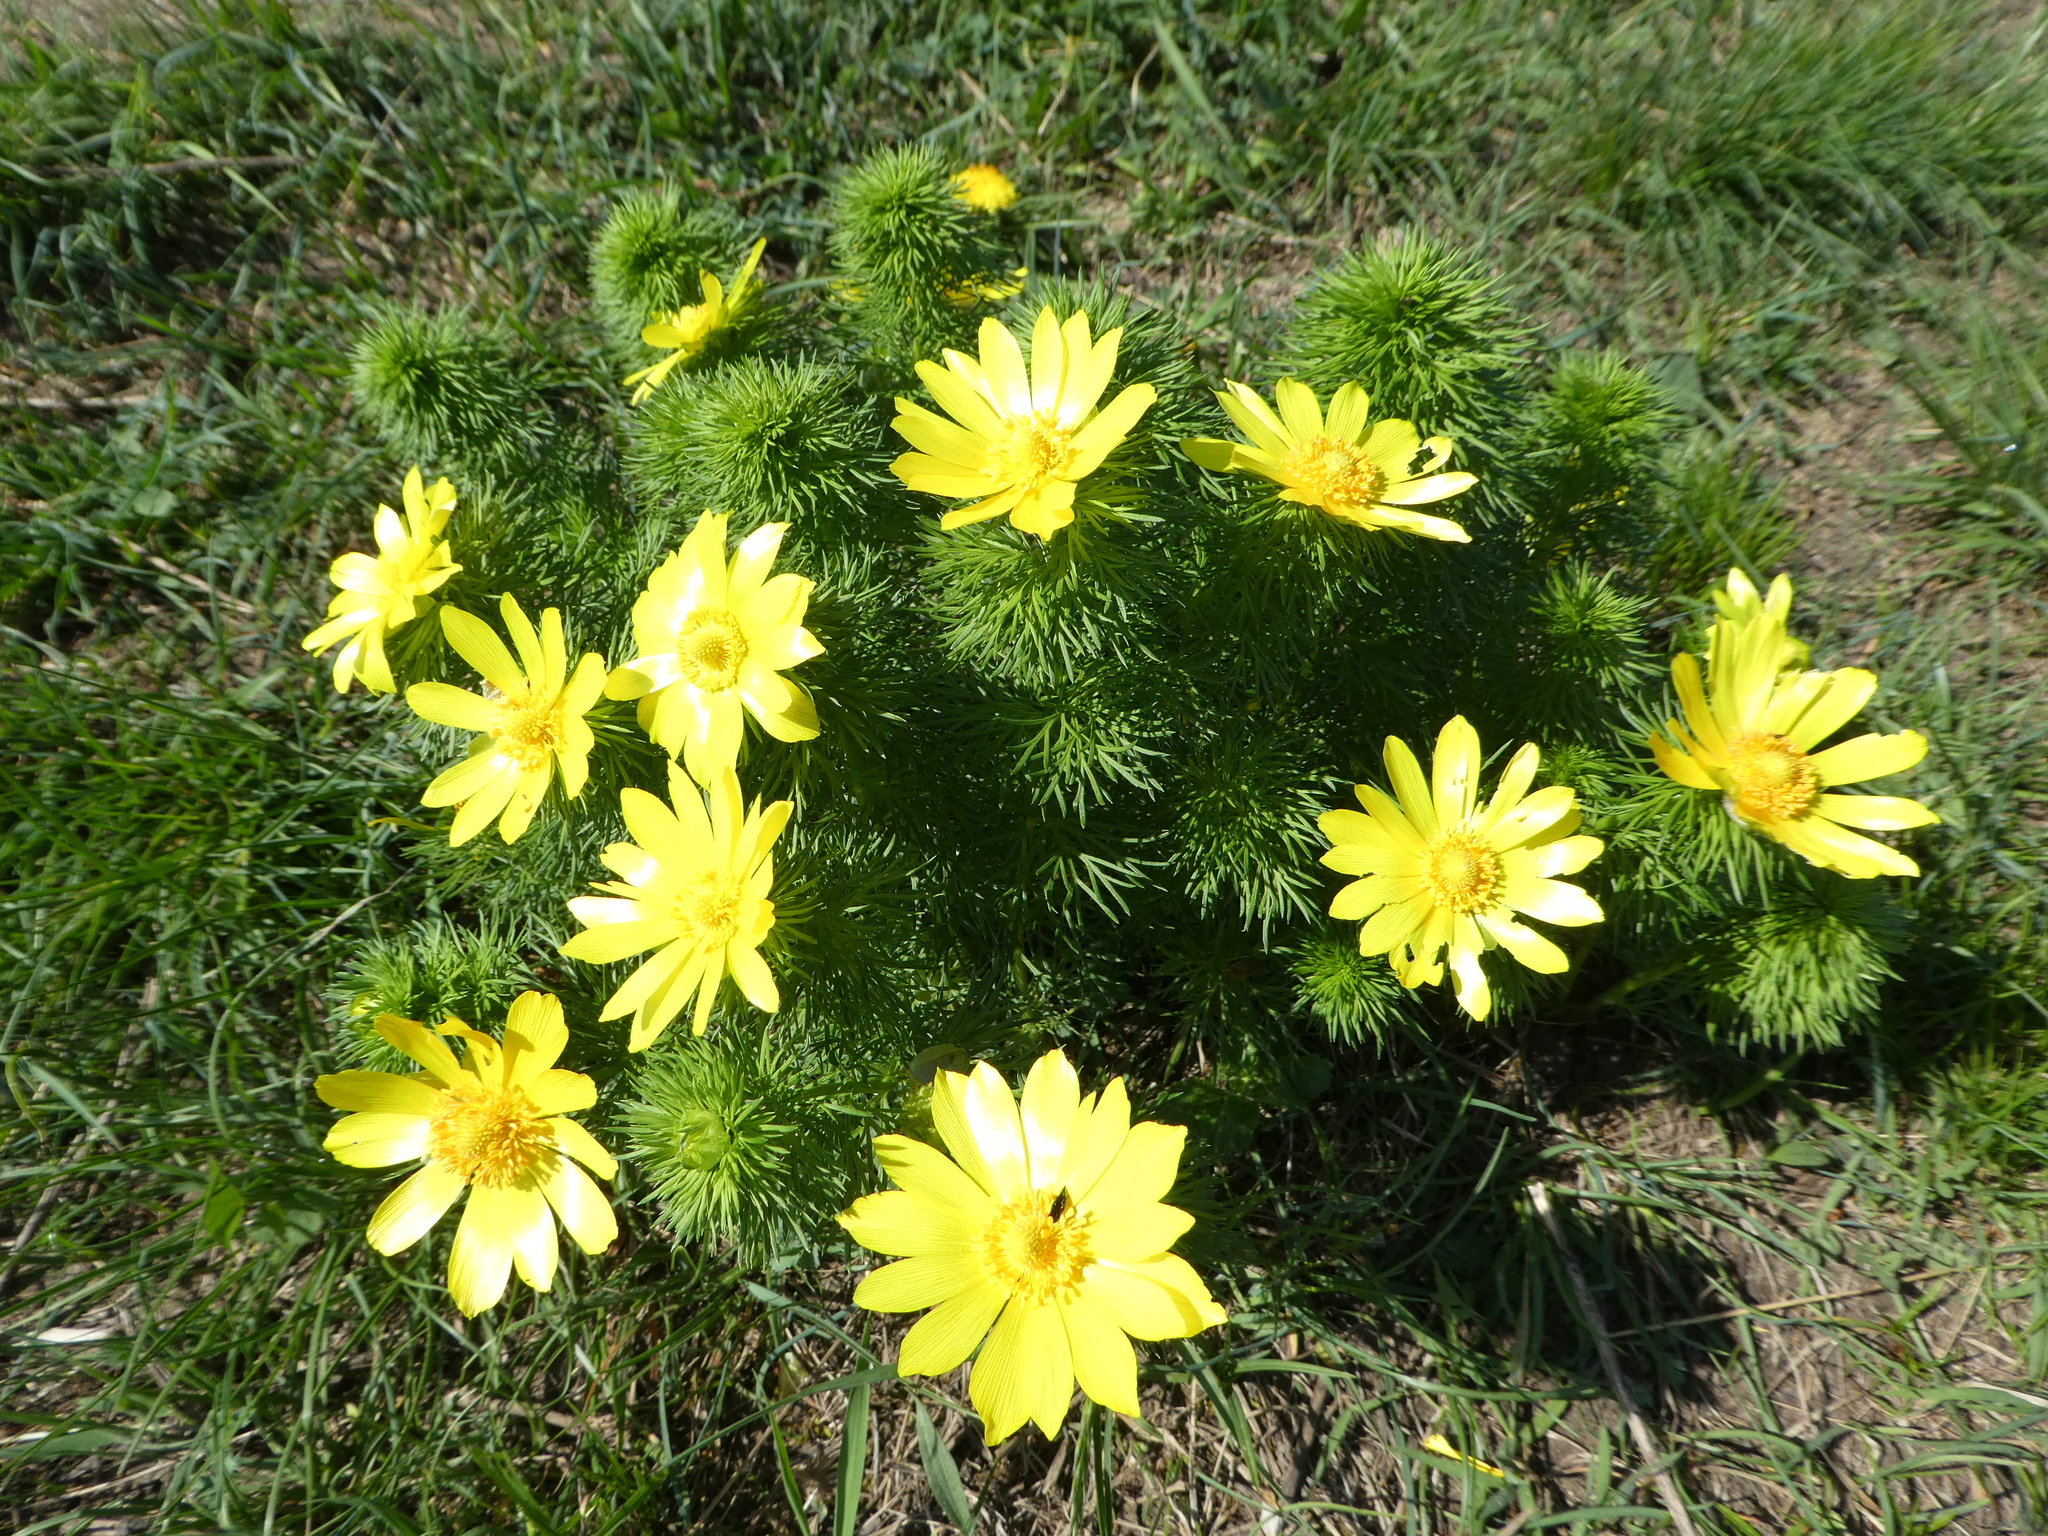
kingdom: Plantae
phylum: Tracheophyta
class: Magnoliopsida
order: Ranunculales
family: Ranunculaceae
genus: Adonis
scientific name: Adonis vernalis
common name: Yellow pheasants-eye
